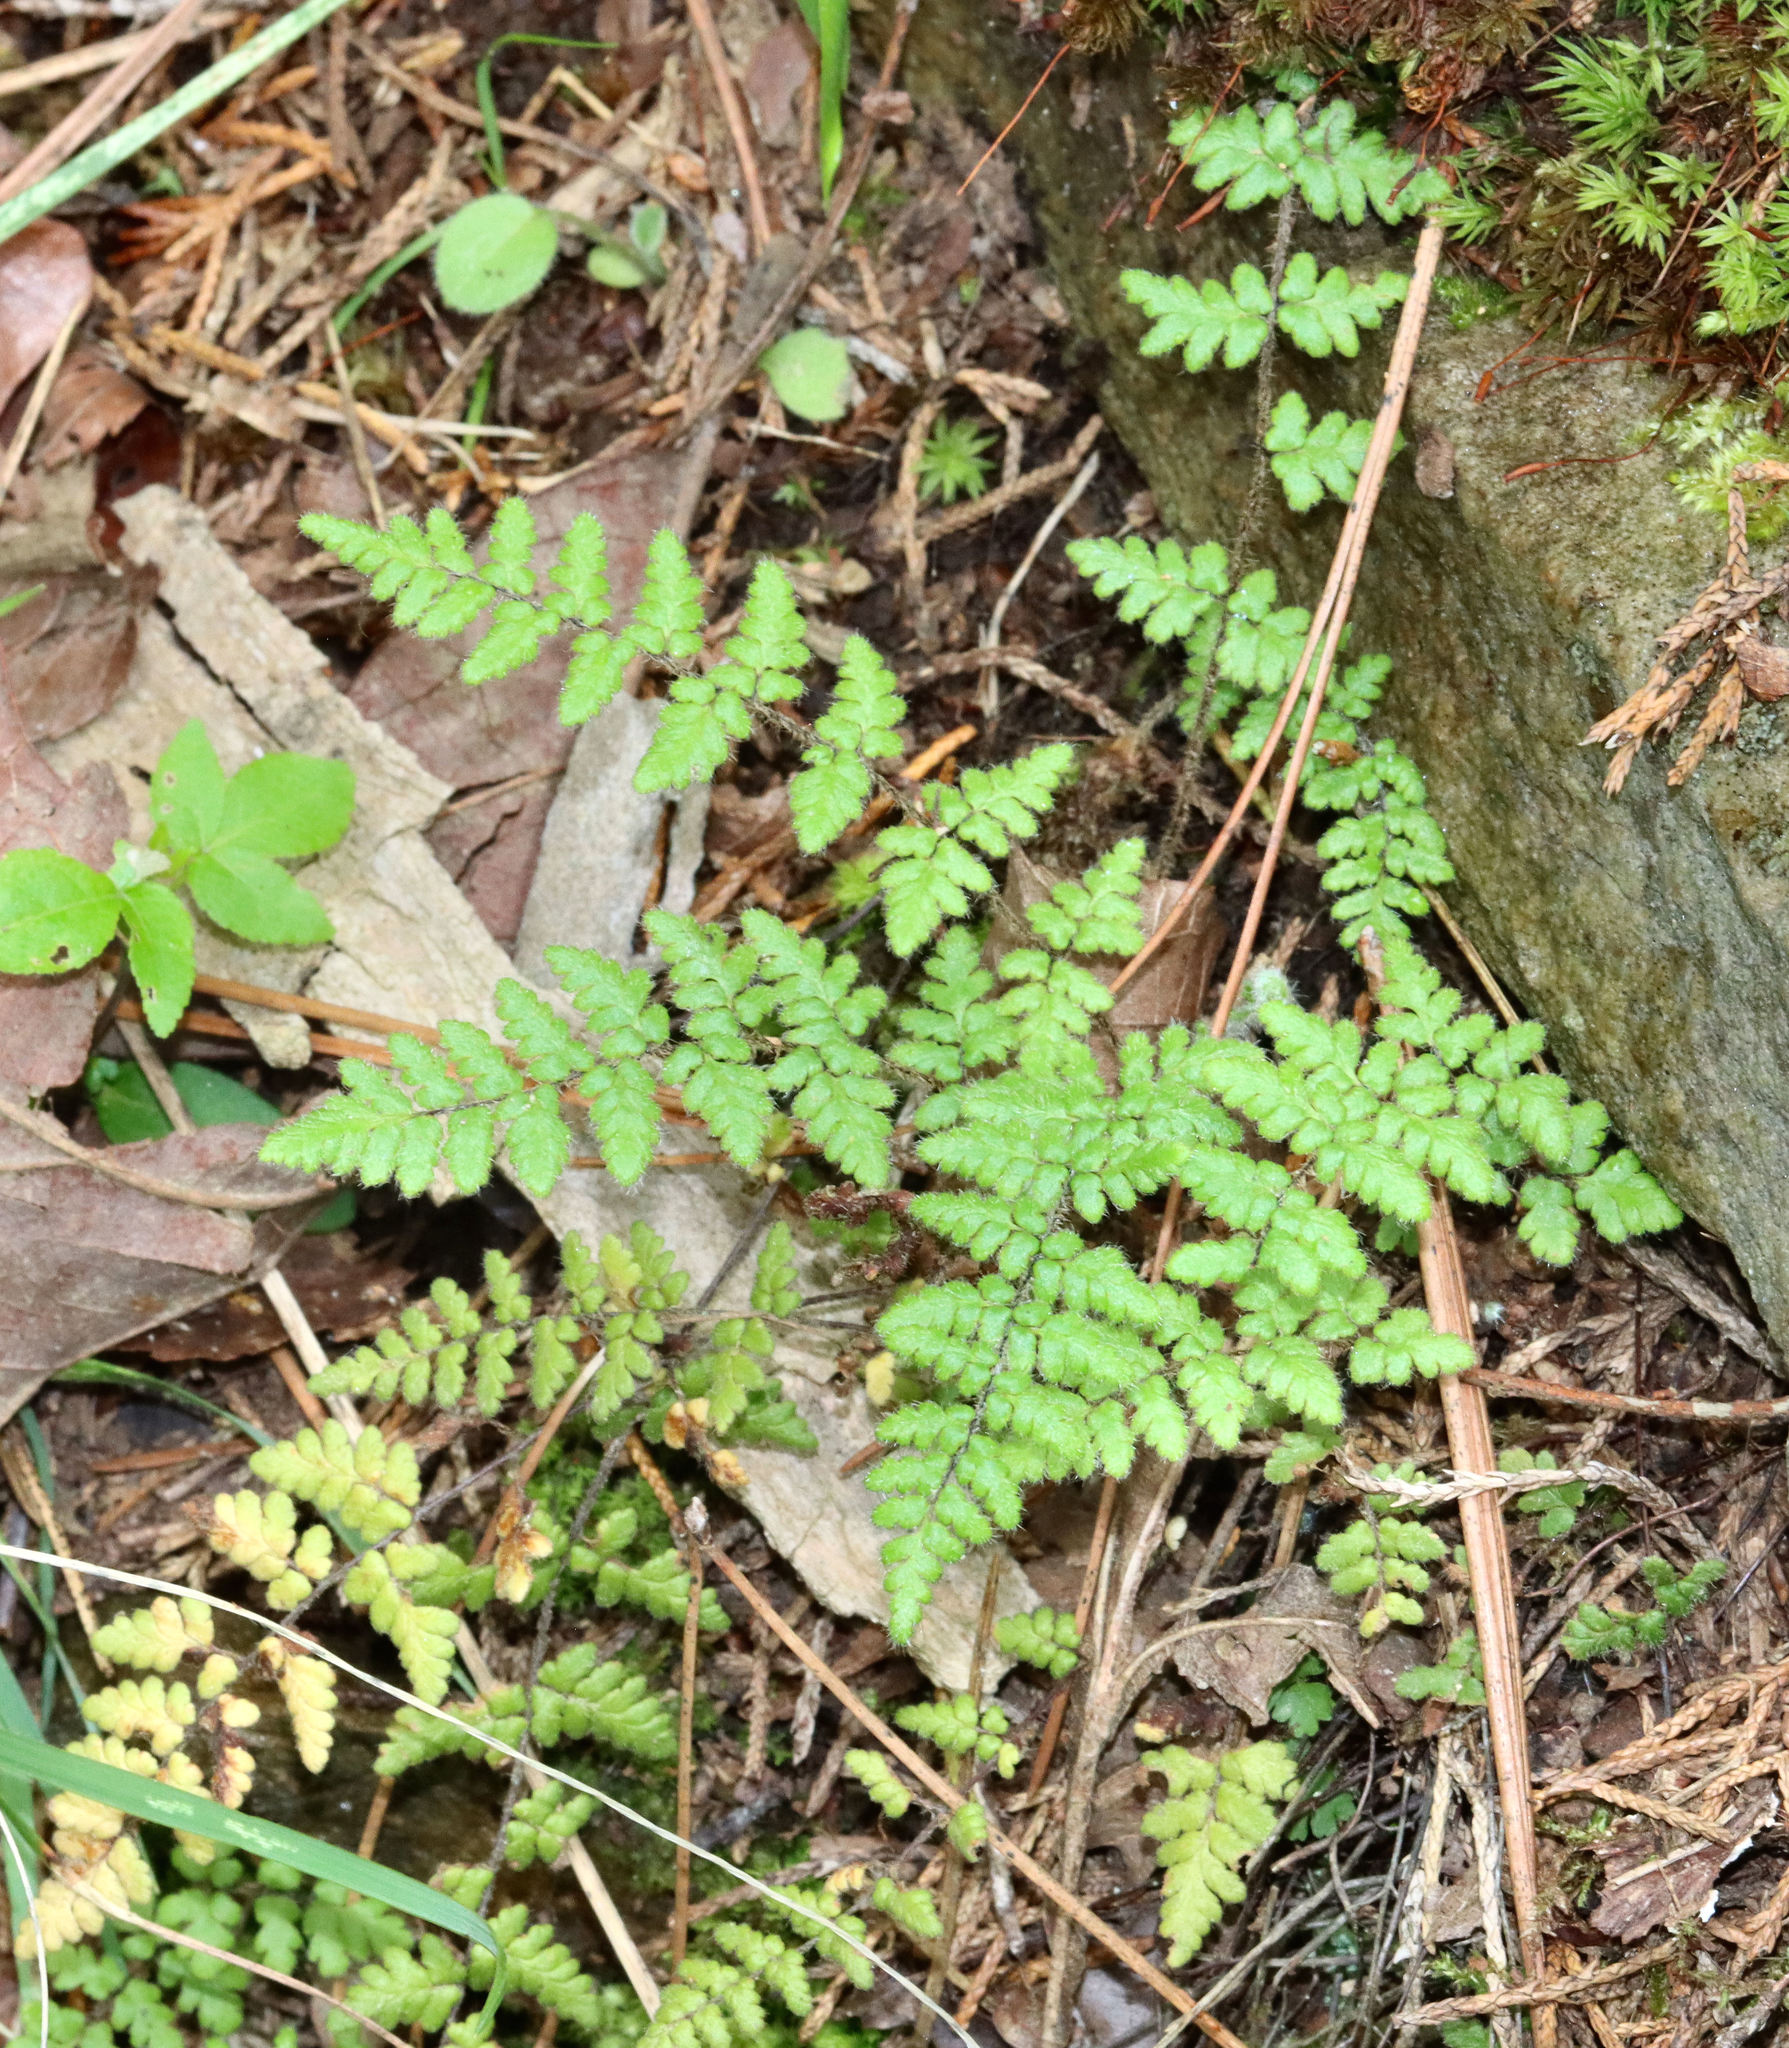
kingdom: Plantae
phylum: Tracheophyta
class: Polypodiopsida
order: Polypodiales
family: Pteridaceae
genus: Myriopteris
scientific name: Myriopteris lanosa
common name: Hairy lip fern
